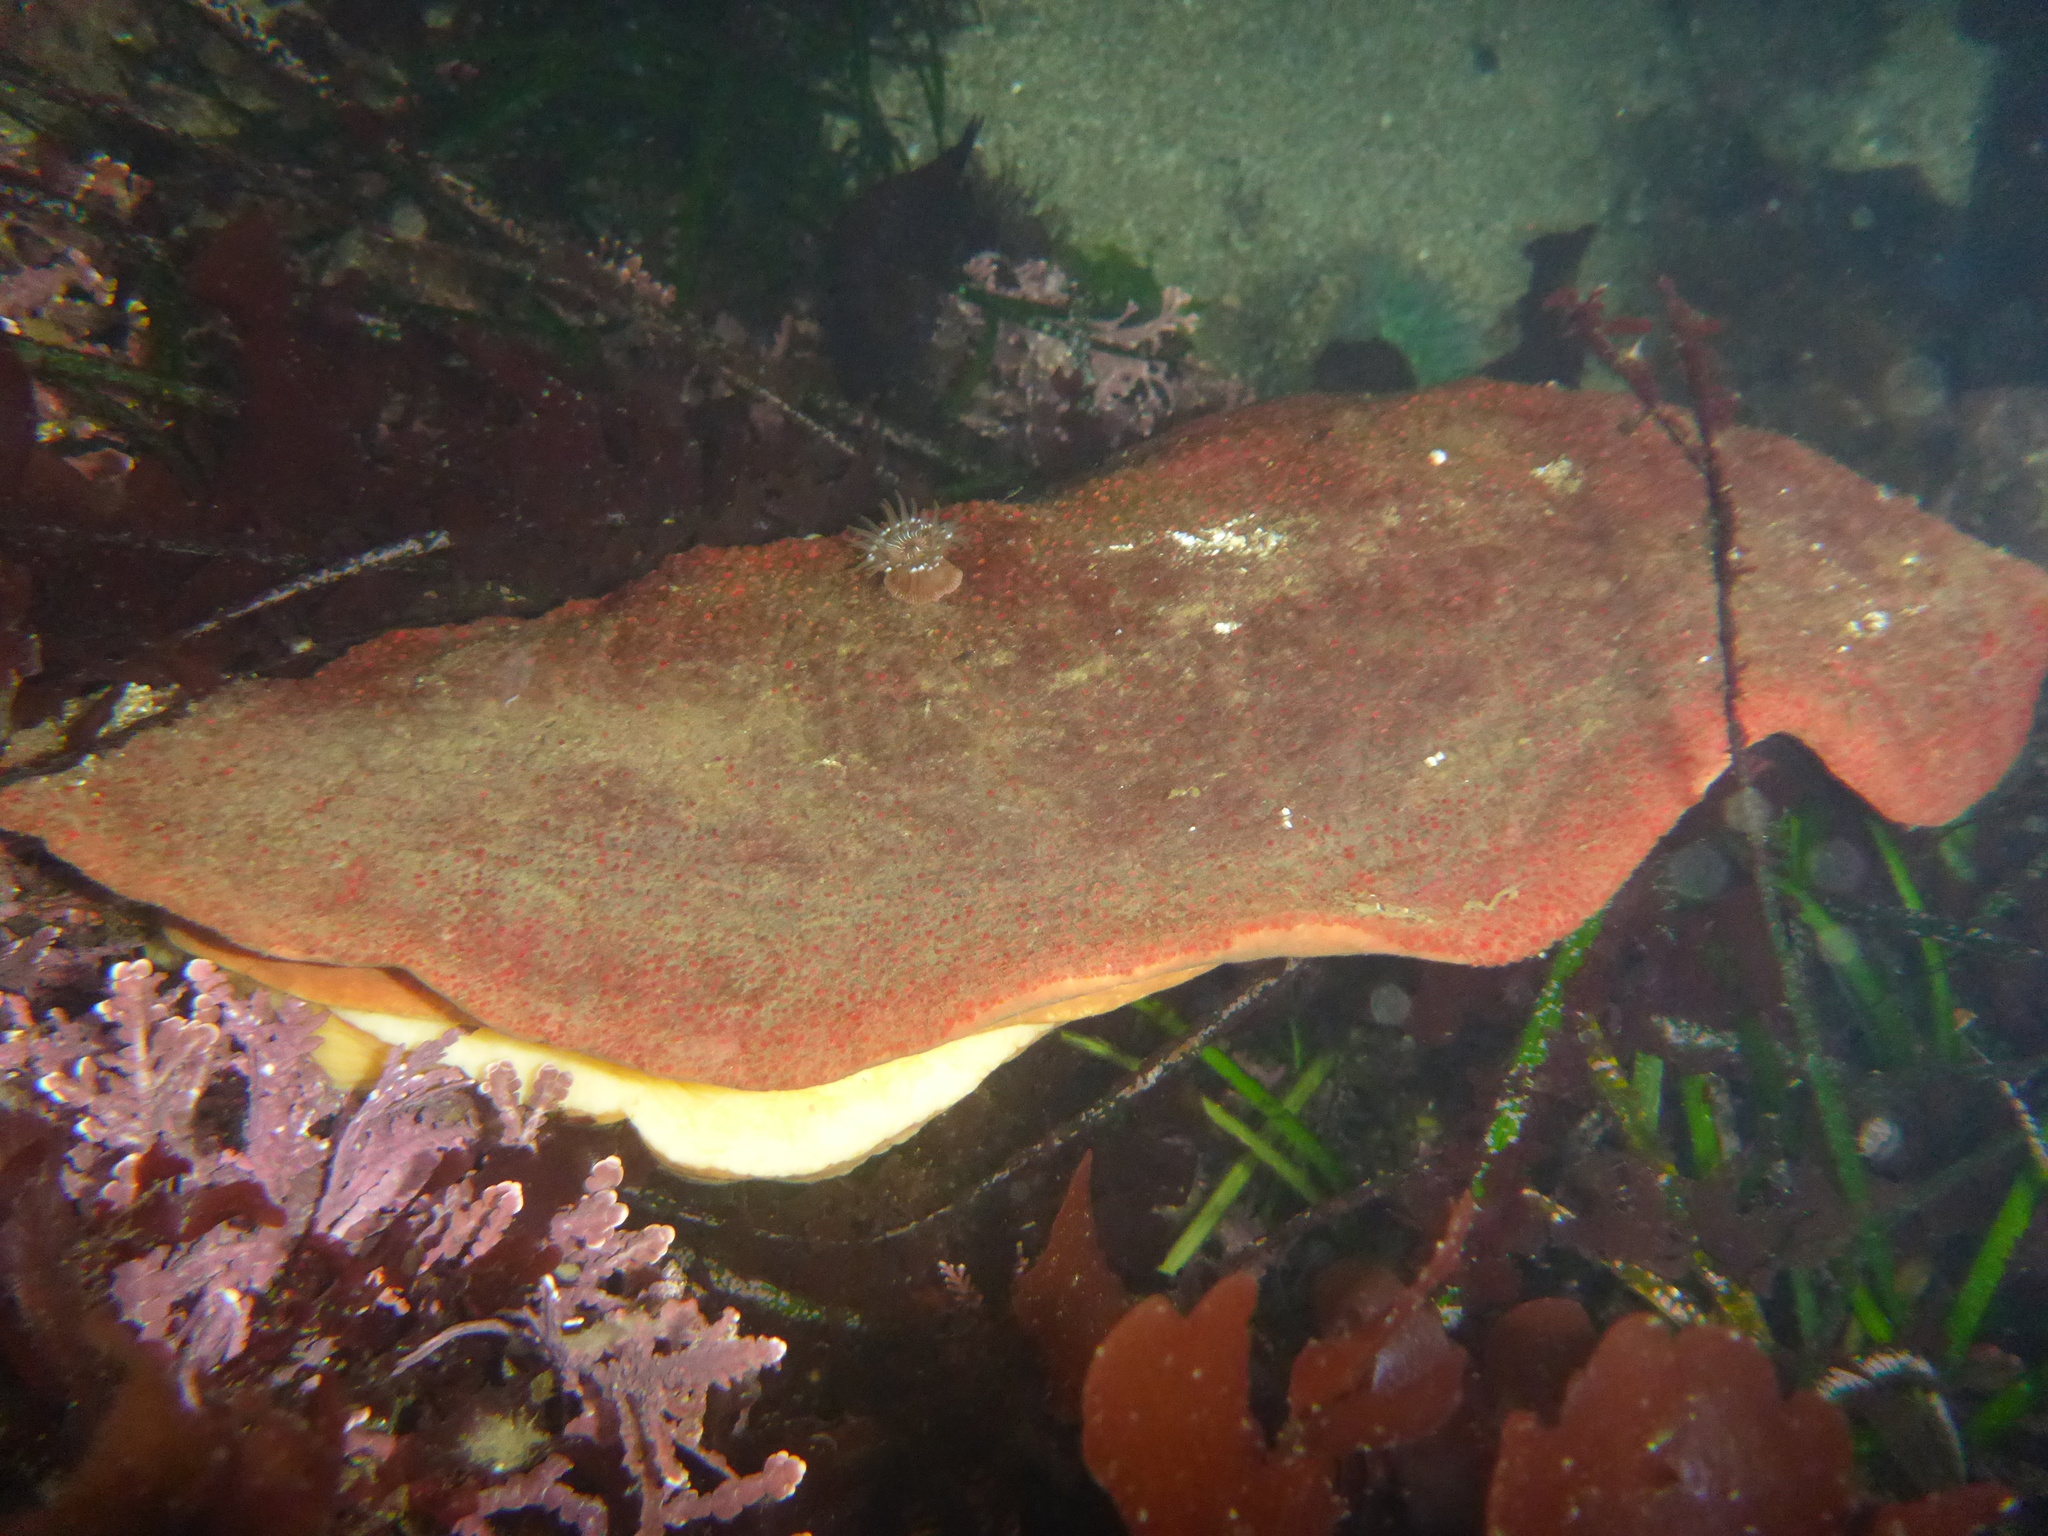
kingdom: Animalia
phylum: Mollusca
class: Polyplacophora
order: Chitonida
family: Acanthochitonidae
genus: Cryptochiton
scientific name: Cryptochiton stelleri
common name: Giant pacific chiton
